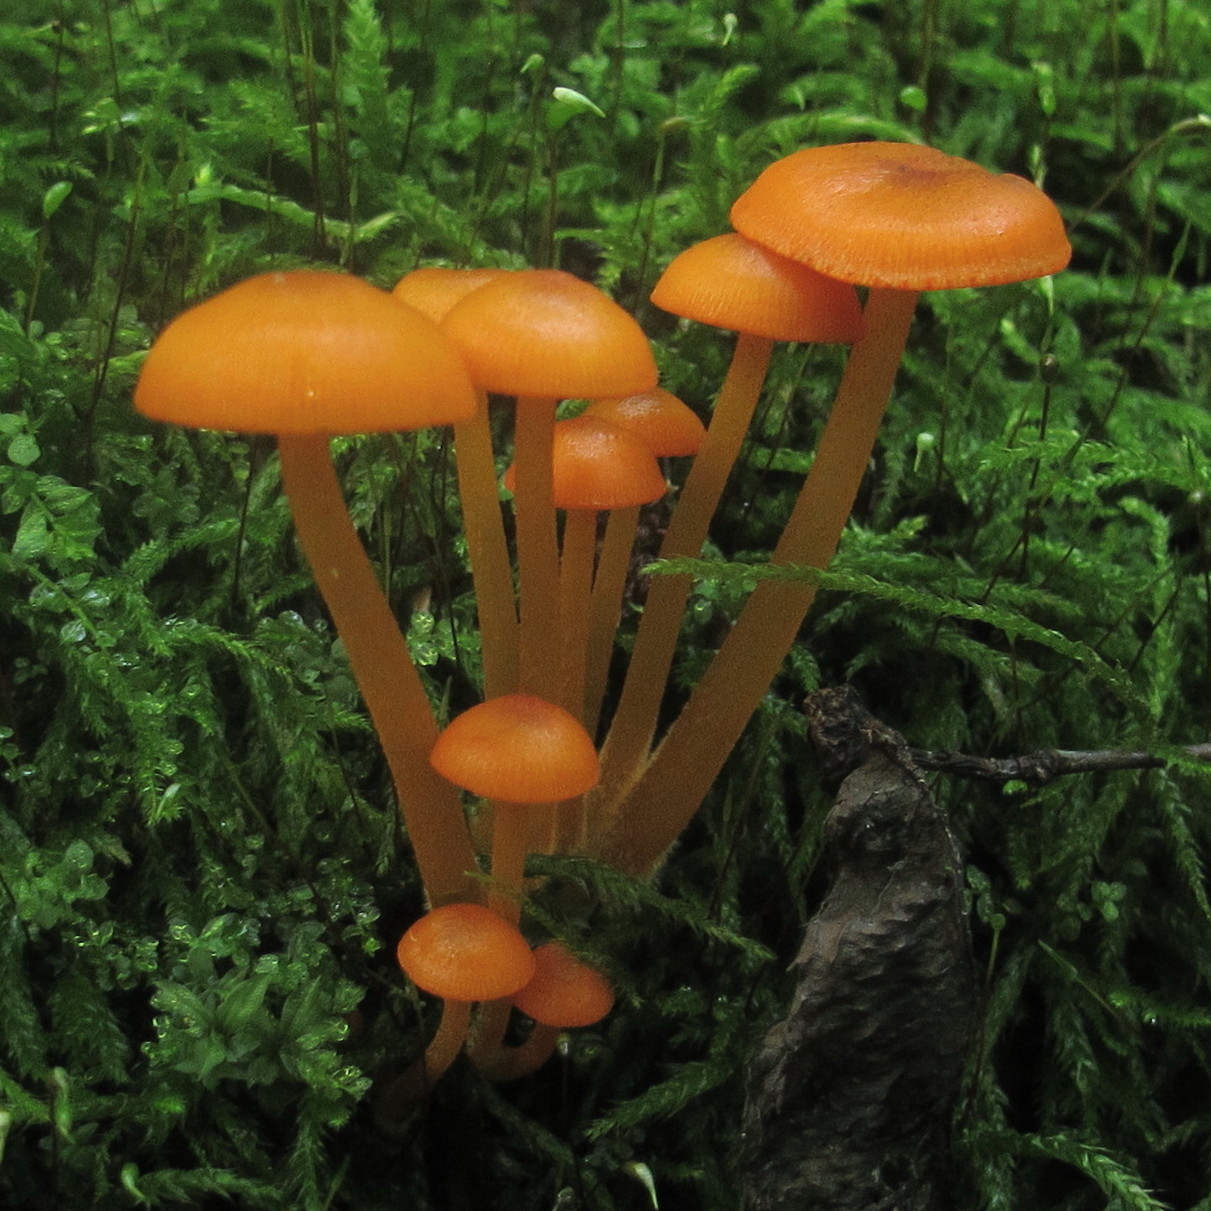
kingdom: Fungi
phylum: Basidiomycota
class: Agaricomycetes
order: Agaricales
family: Mycenaceae
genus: Mycena
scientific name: Mycena leaiana
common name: Orange mycena
